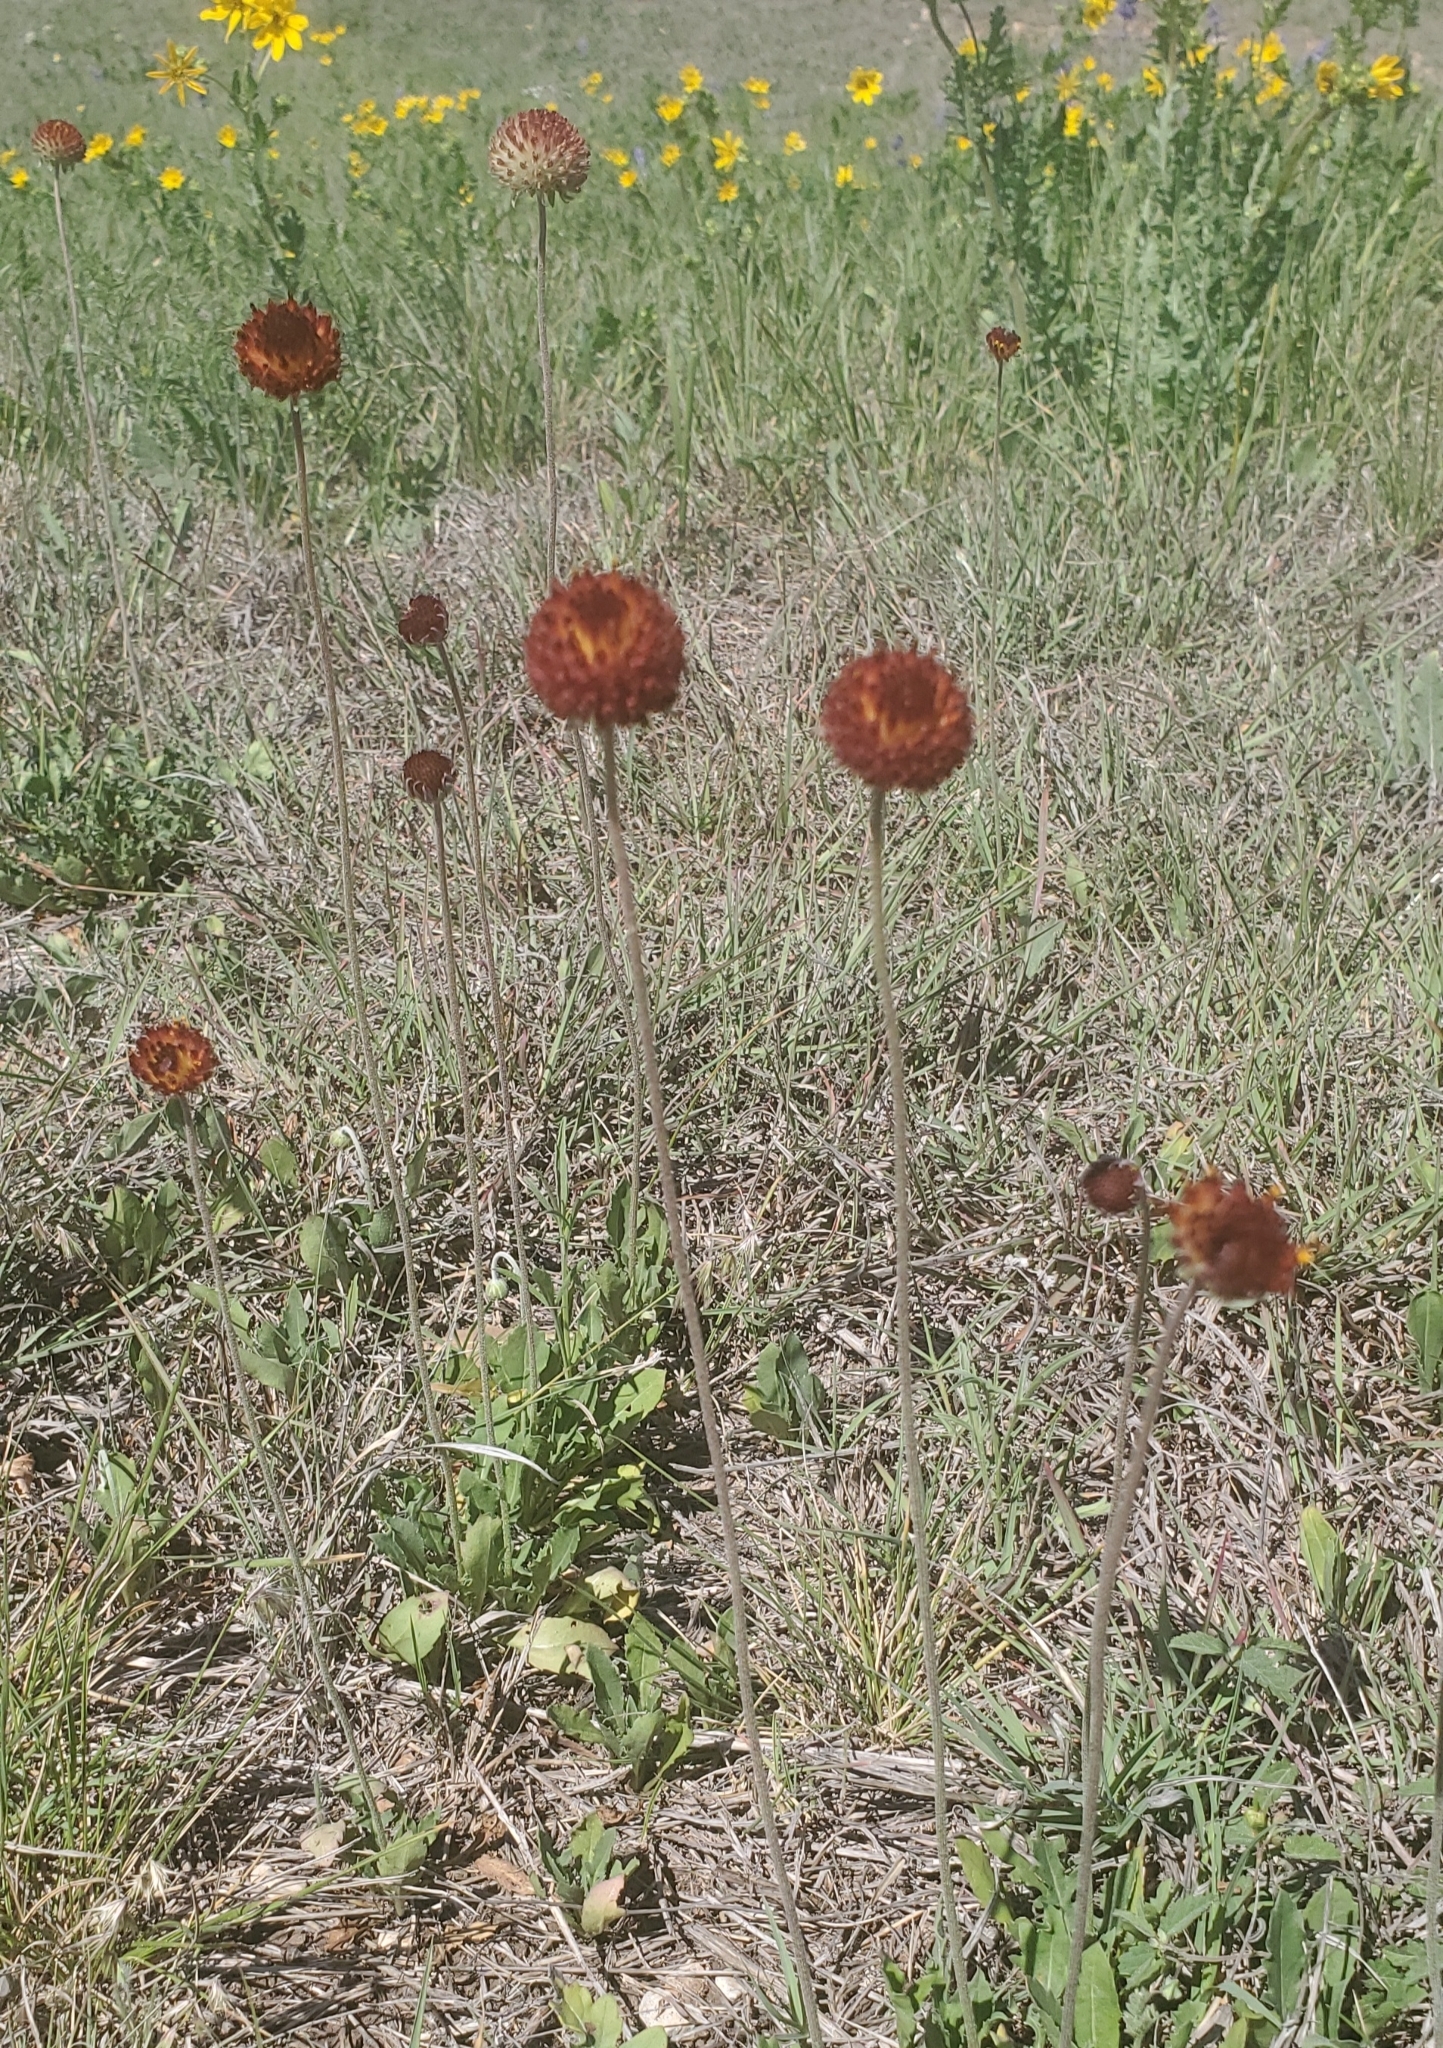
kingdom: Plantae
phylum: Tracheophyta
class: Magnoliopsida
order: Asterales
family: Asteraceae
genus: Gaillardia
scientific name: Gaillardia suavis
